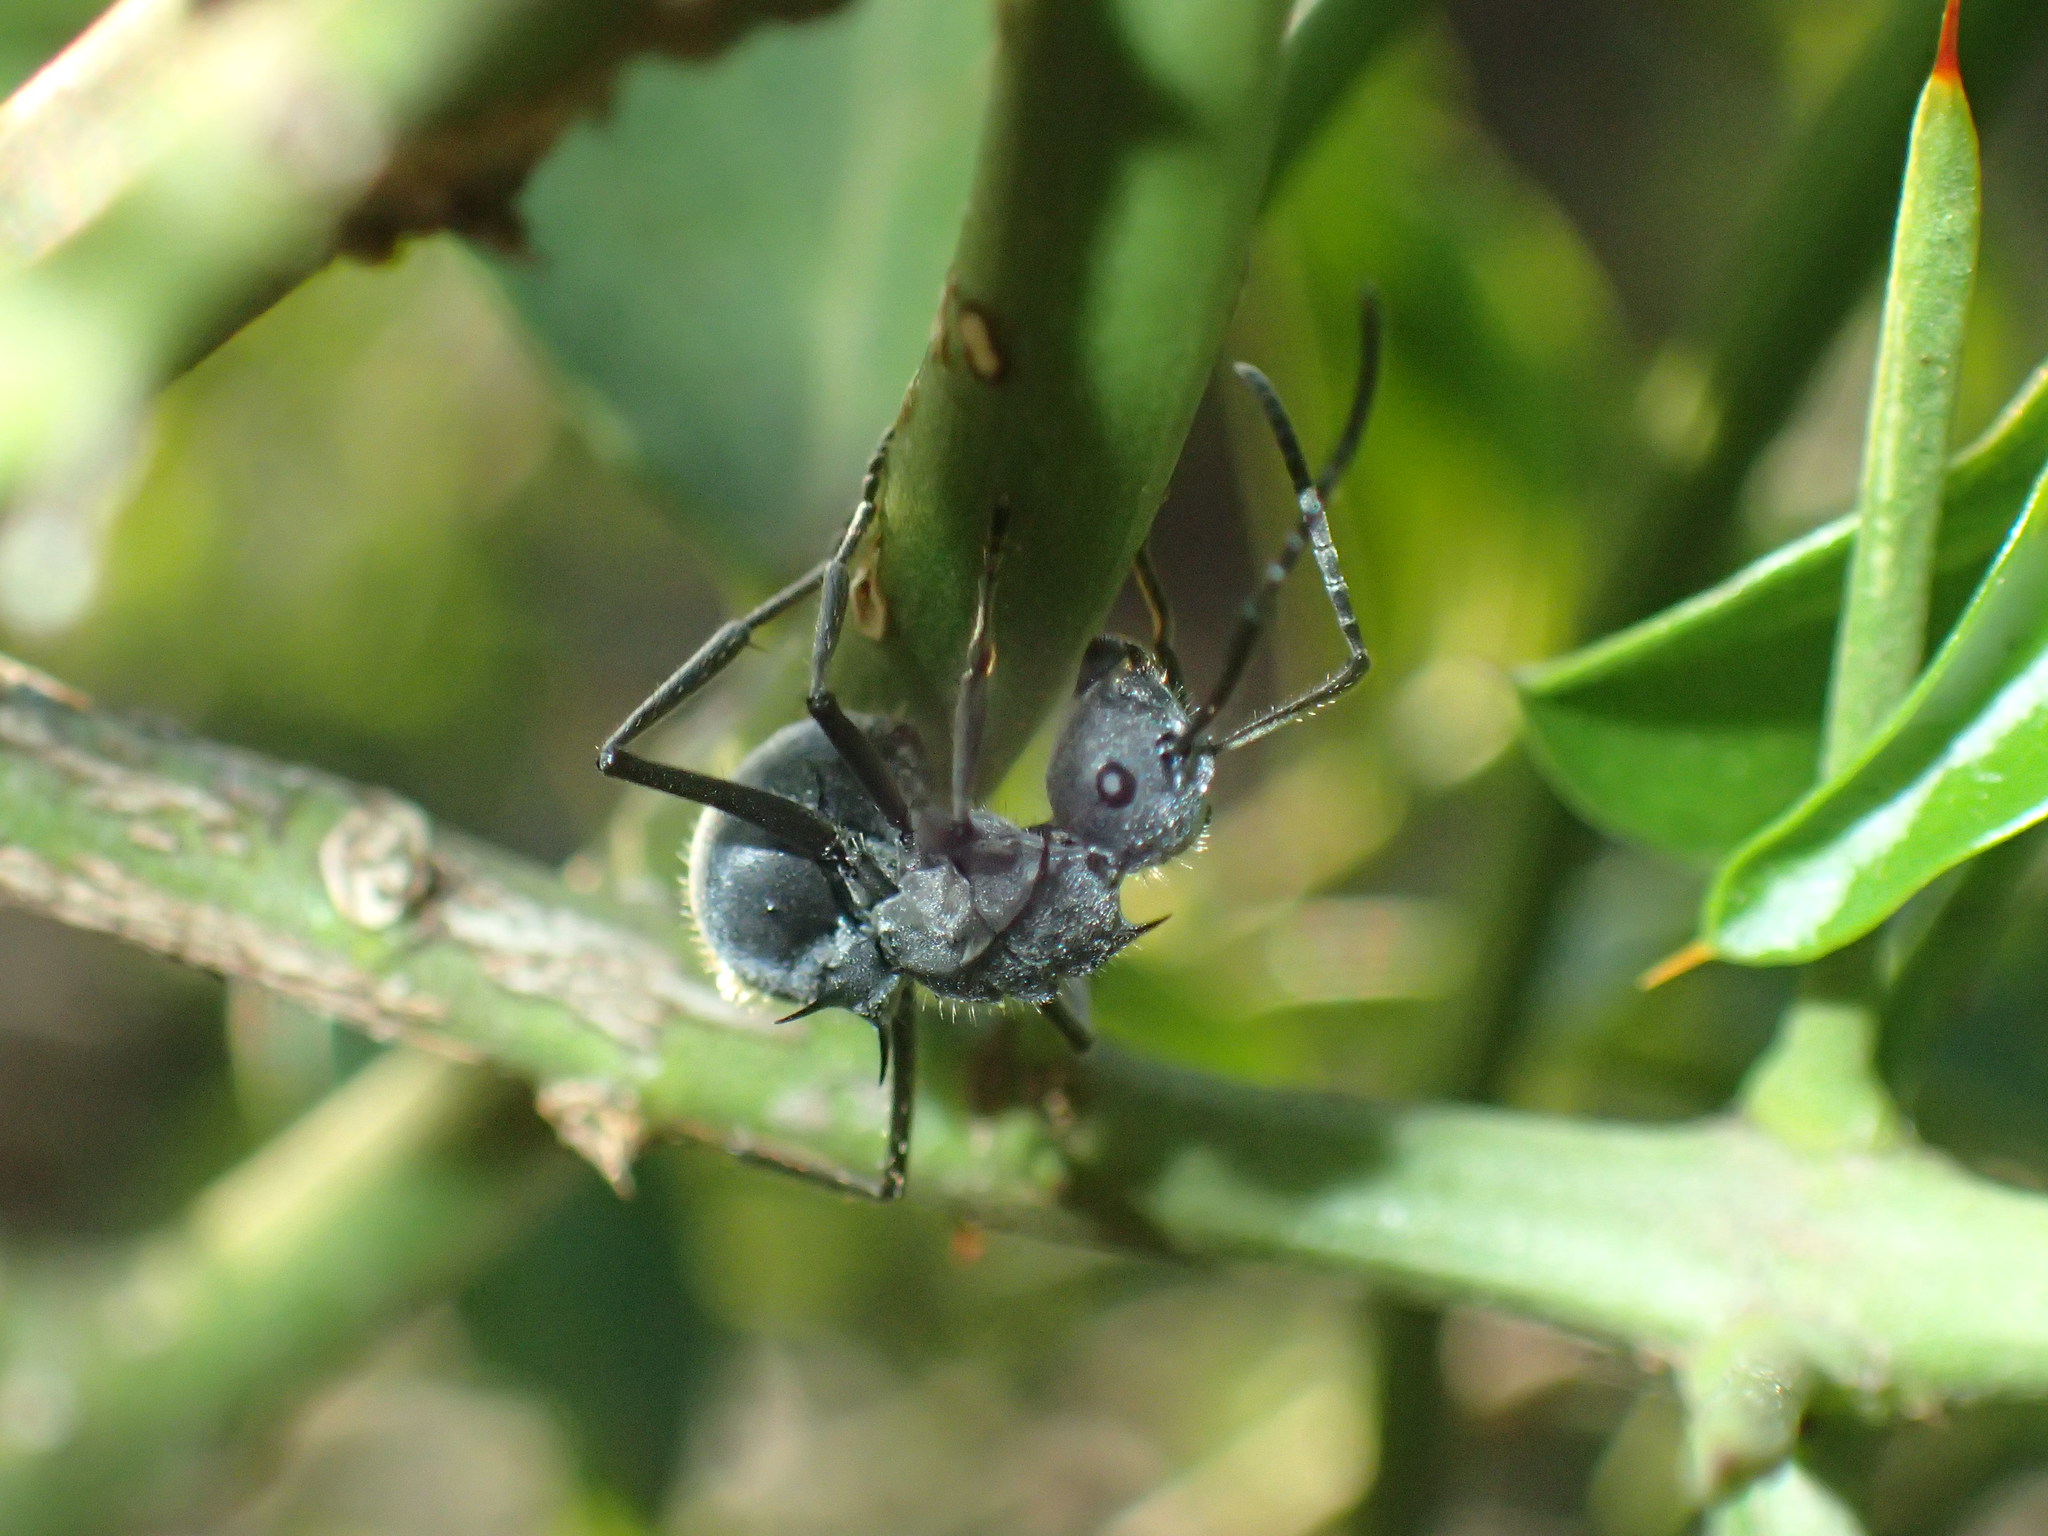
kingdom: Animalia
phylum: Arthropoda
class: Insecta
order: Hymenoptera
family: Formicidae
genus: Polyrhachis
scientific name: Polyrhachis schistacea
